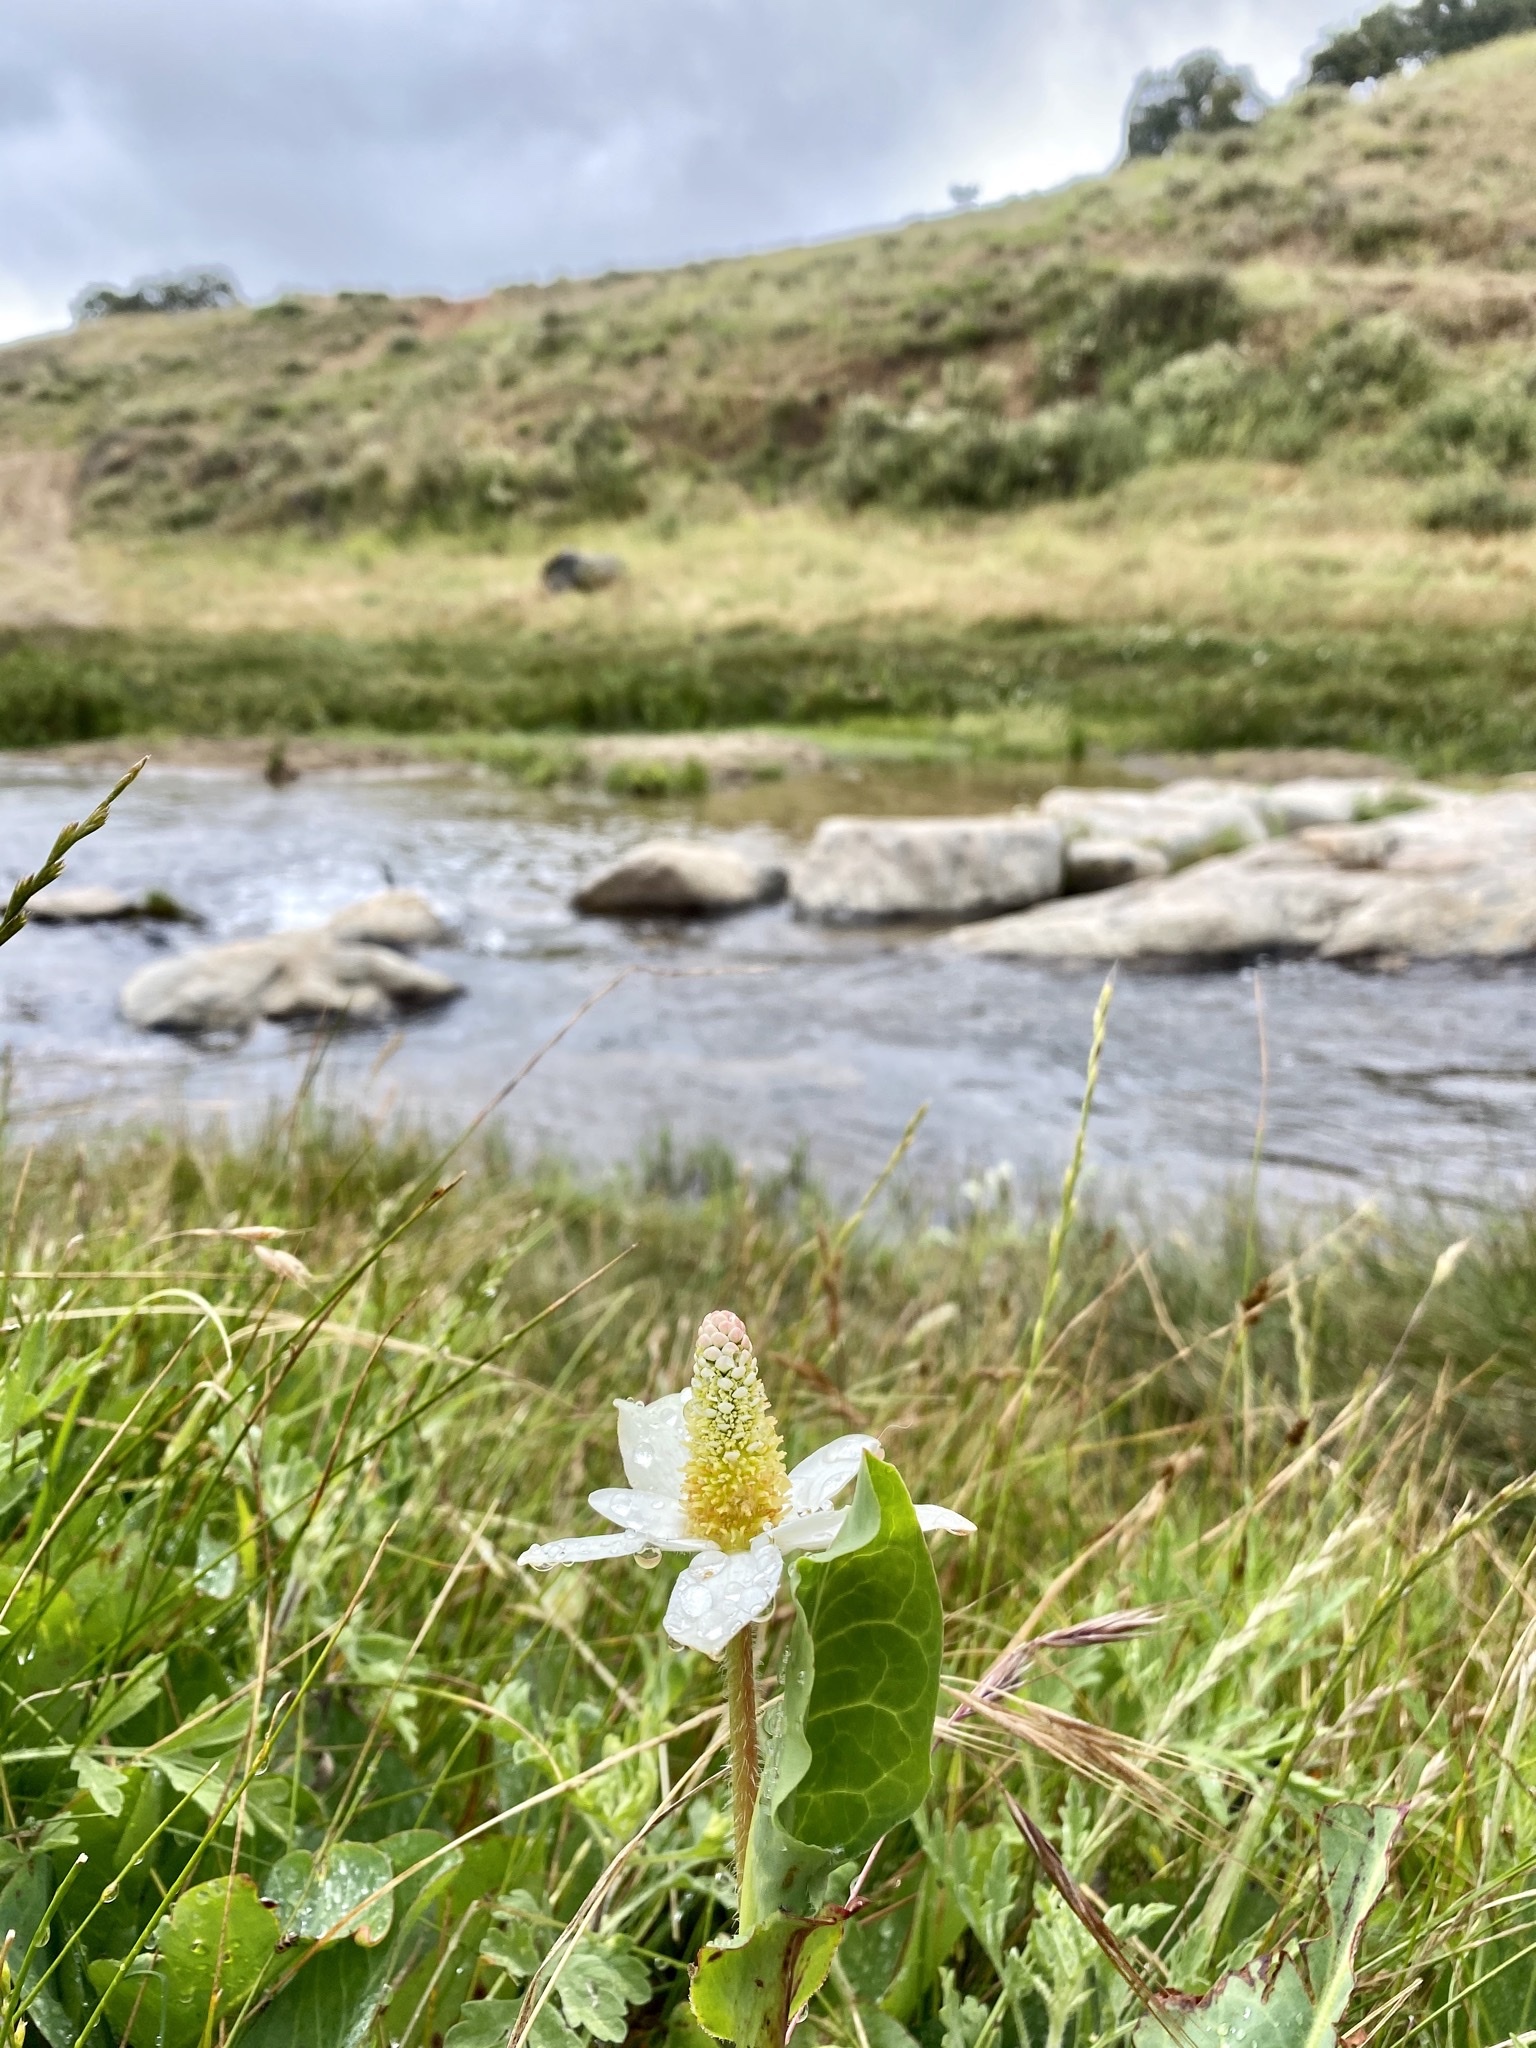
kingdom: Plantae
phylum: Tracheophyta
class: Magnoliopsida
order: Piperales
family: Saururaceae
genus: Anemopsis
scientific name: Anemopsis californica
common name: Apache-beads
